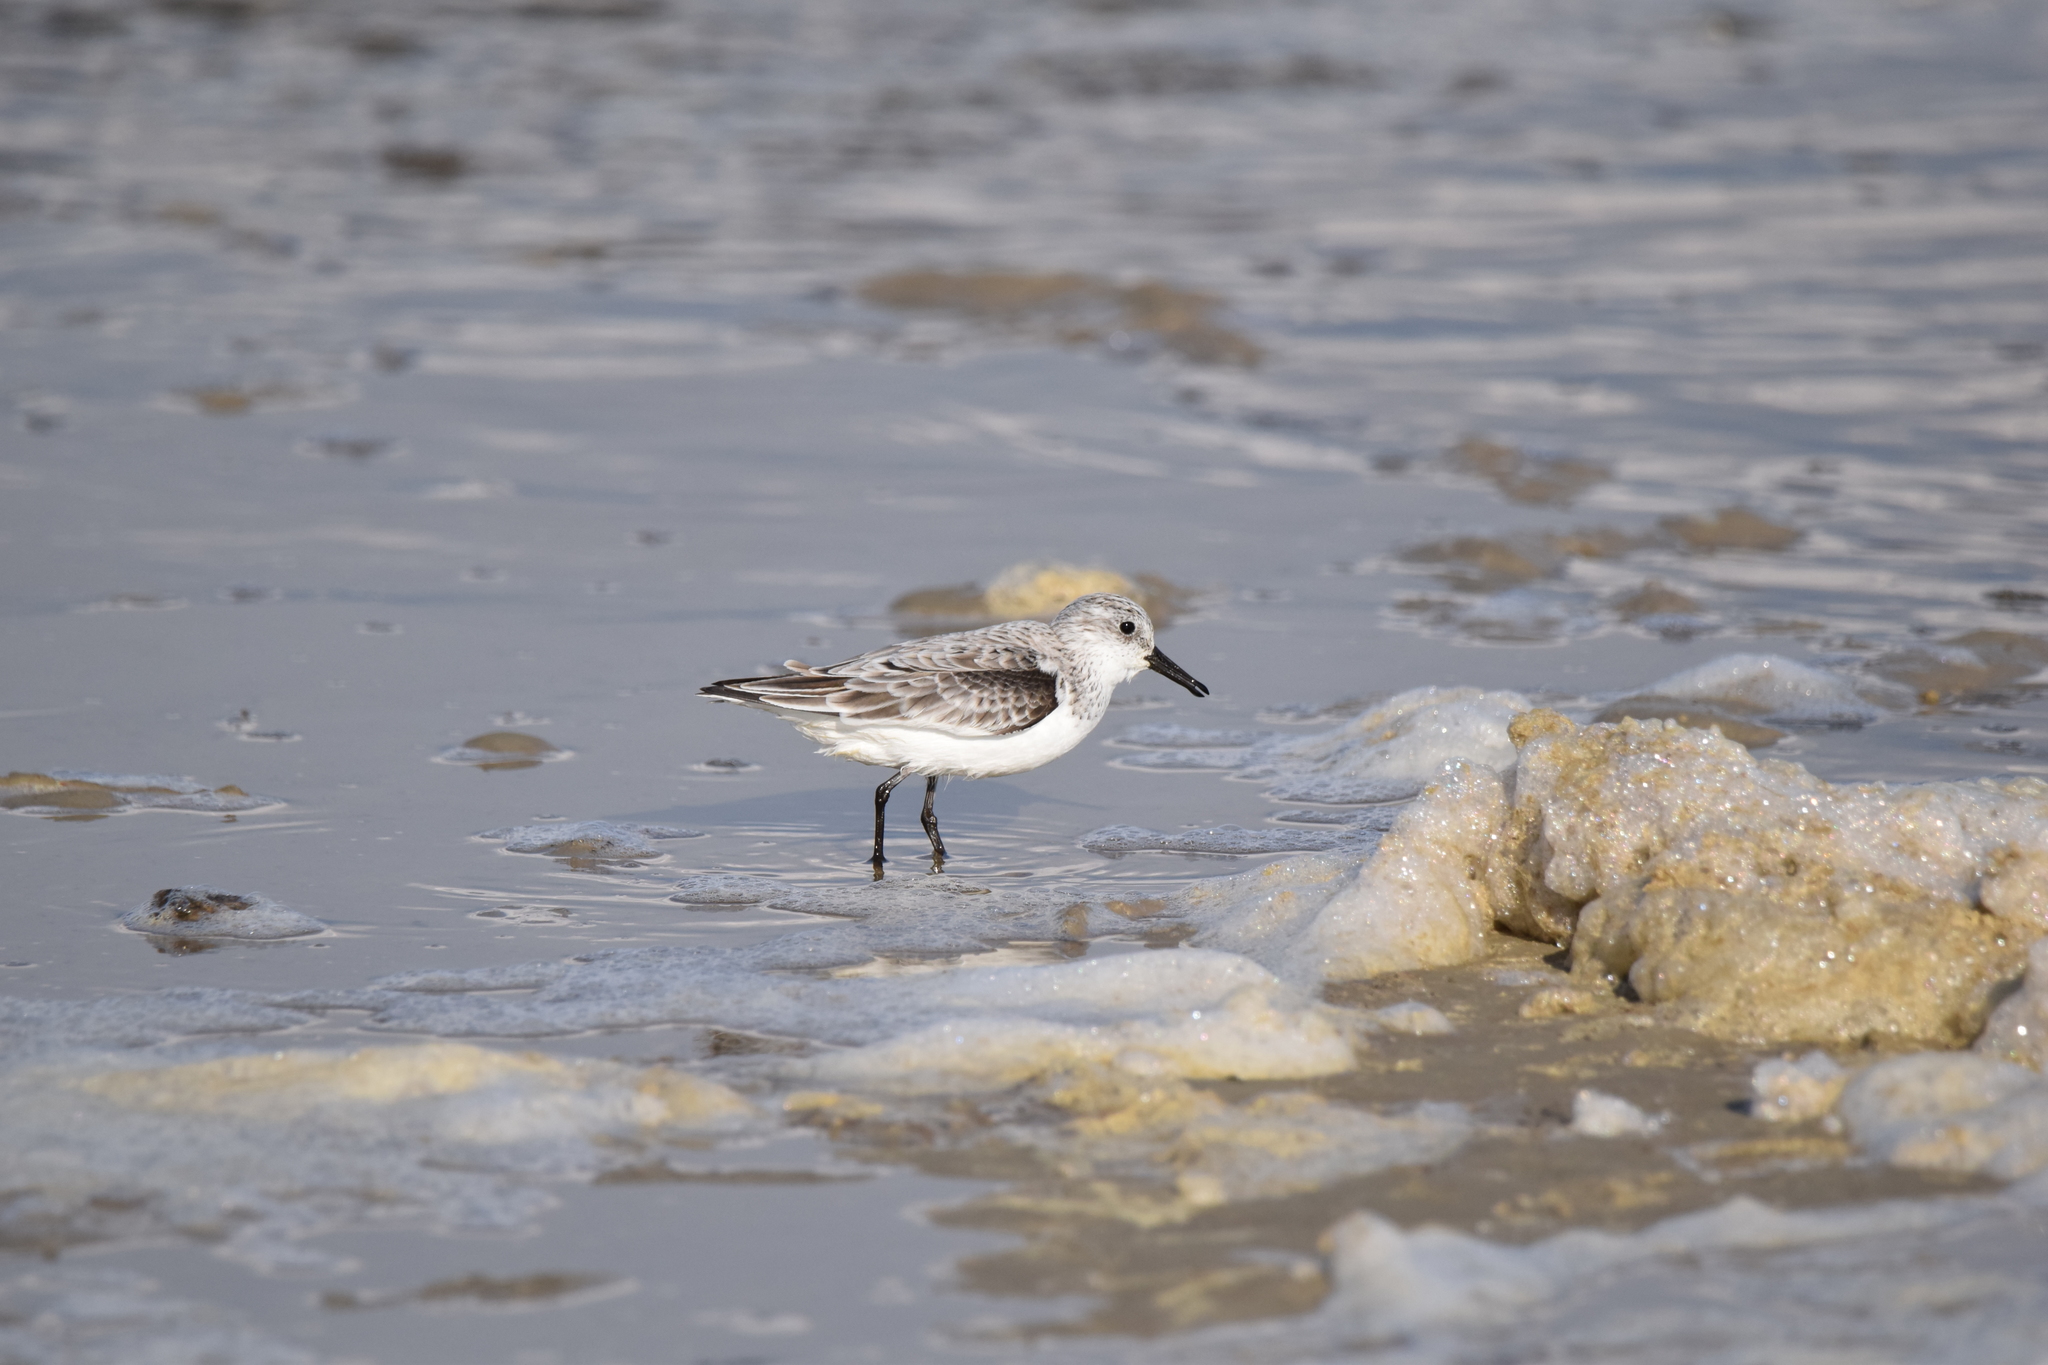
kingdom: Animalia
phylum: Chordata
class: Aves
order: Charadriiformes
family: Scolopacidae
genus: Calidris
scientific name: Calidris alba
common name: Sanderling
